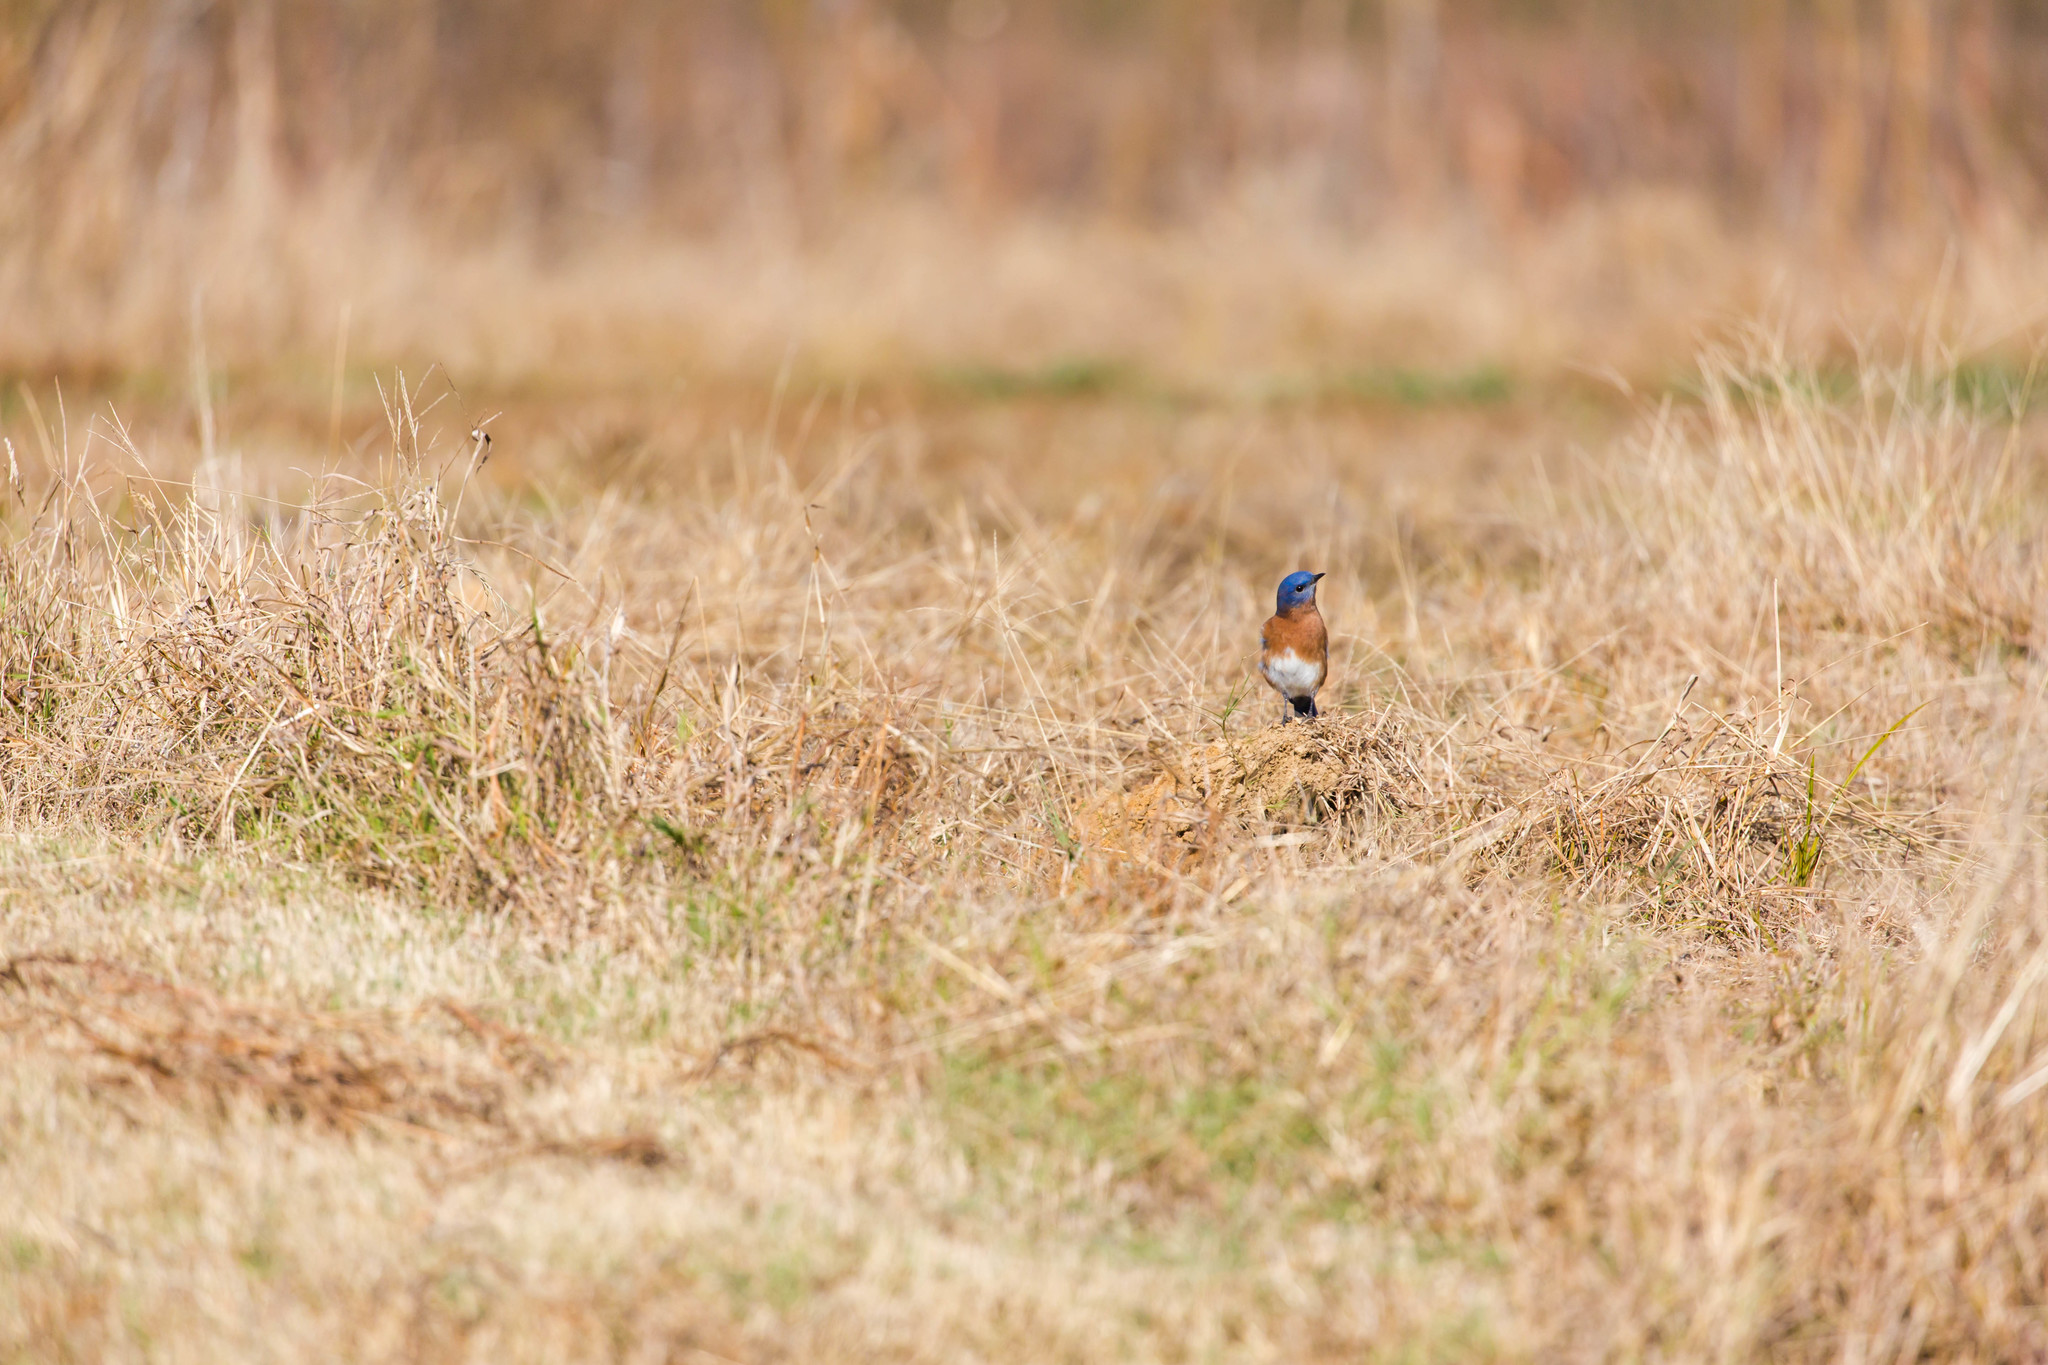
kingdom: Animalia
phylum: Chordata
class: Aves
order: Passeriformes
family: Turdidae
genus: Sialia
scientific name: Sialia sialis
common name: Eastern bluebird
